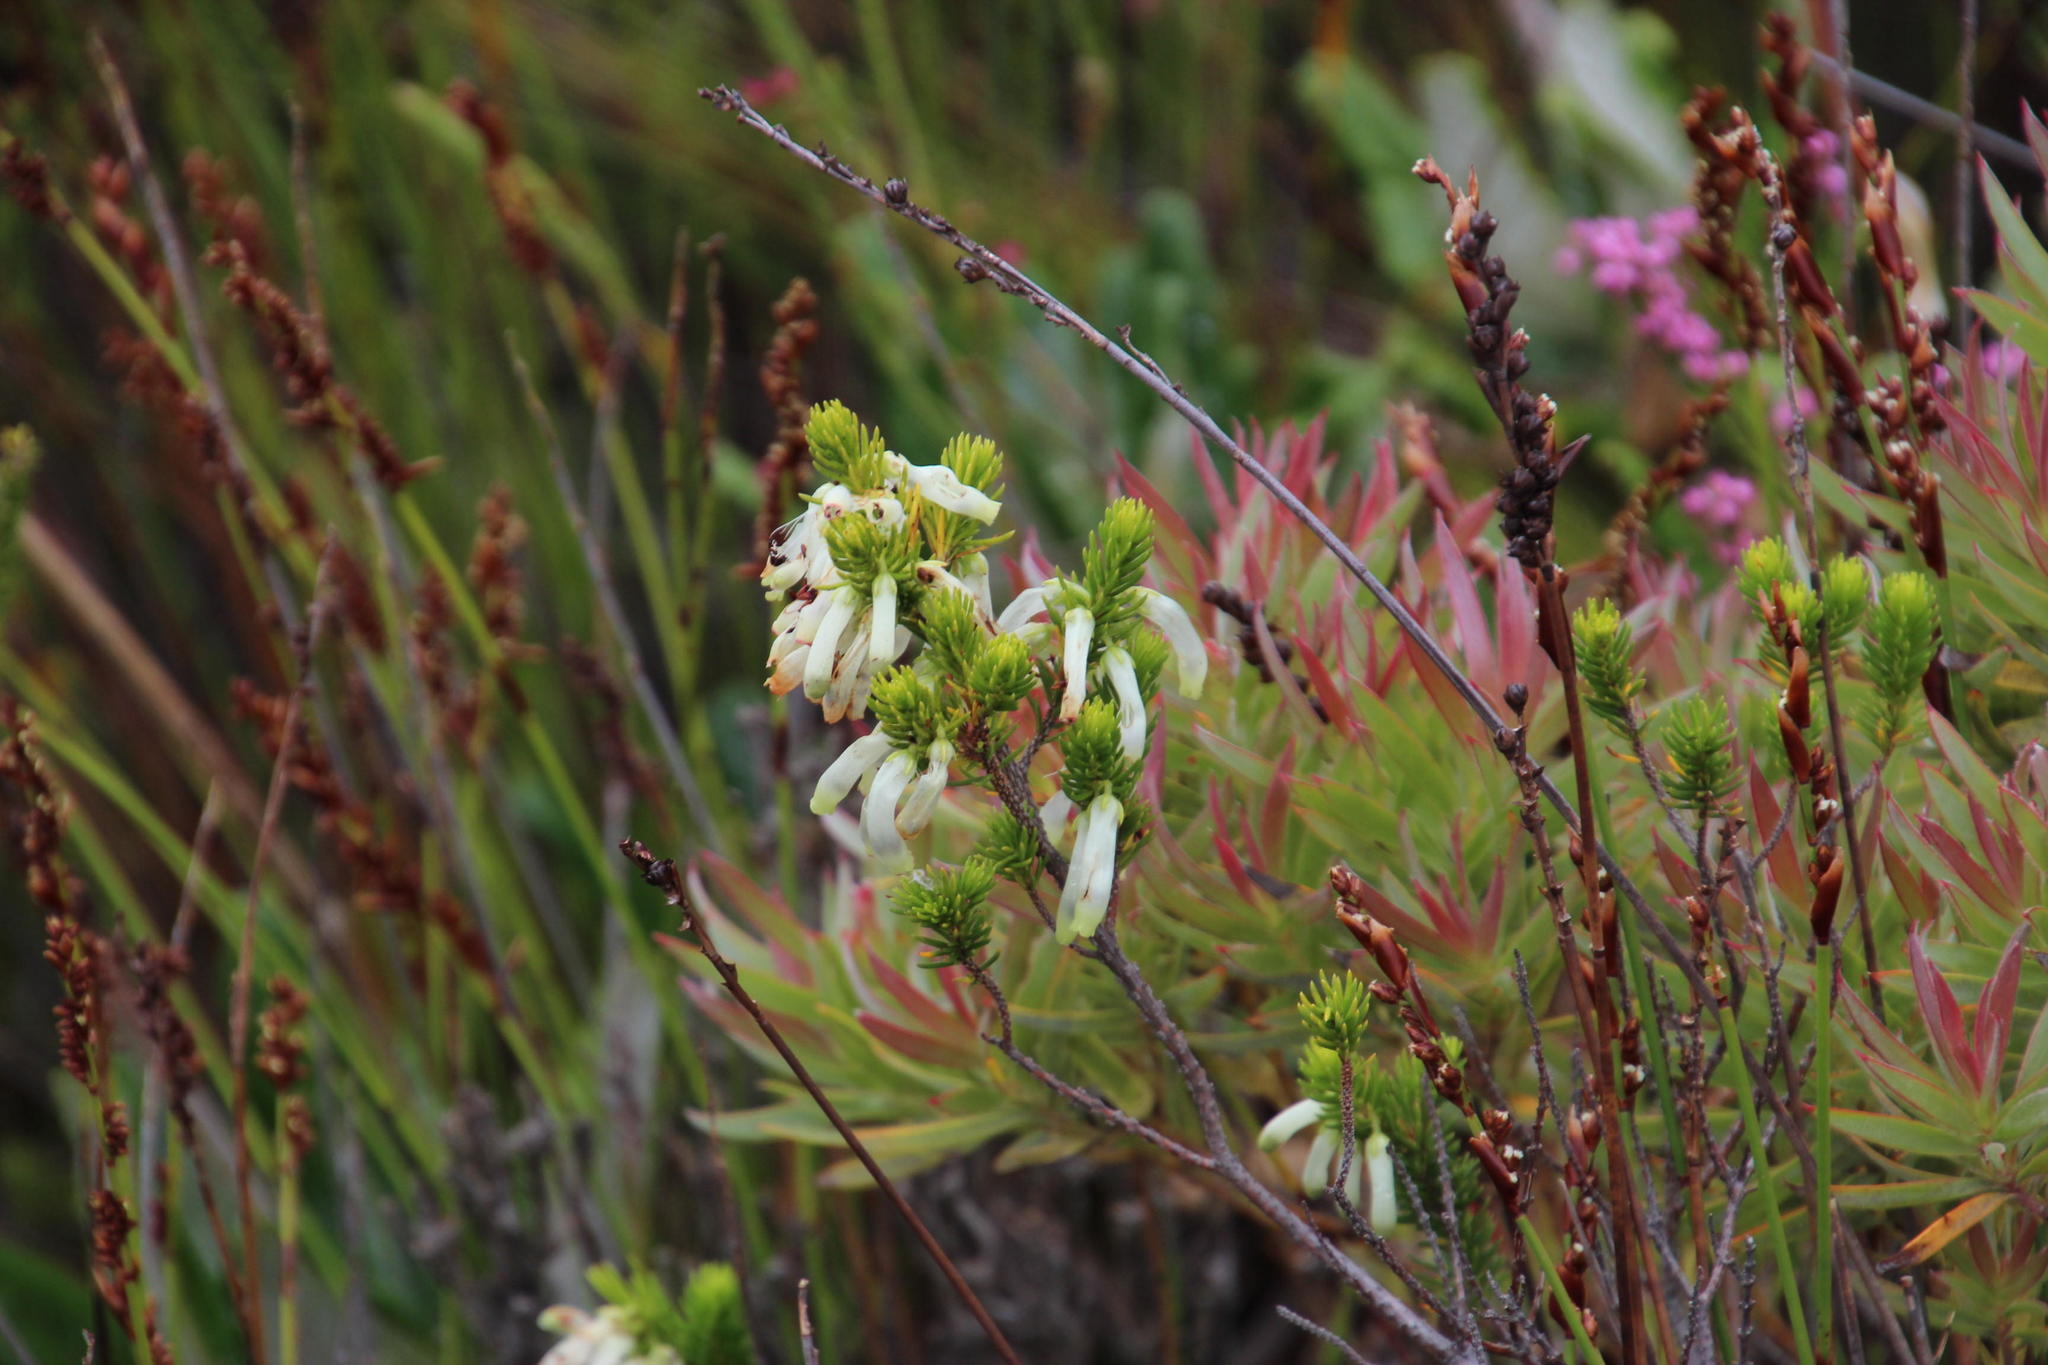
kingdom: Plantae
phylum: Tracheophyta
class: Magnoliopsida
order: Ericales
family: Ericaceae
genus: Erica
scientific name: Erica mammosa
